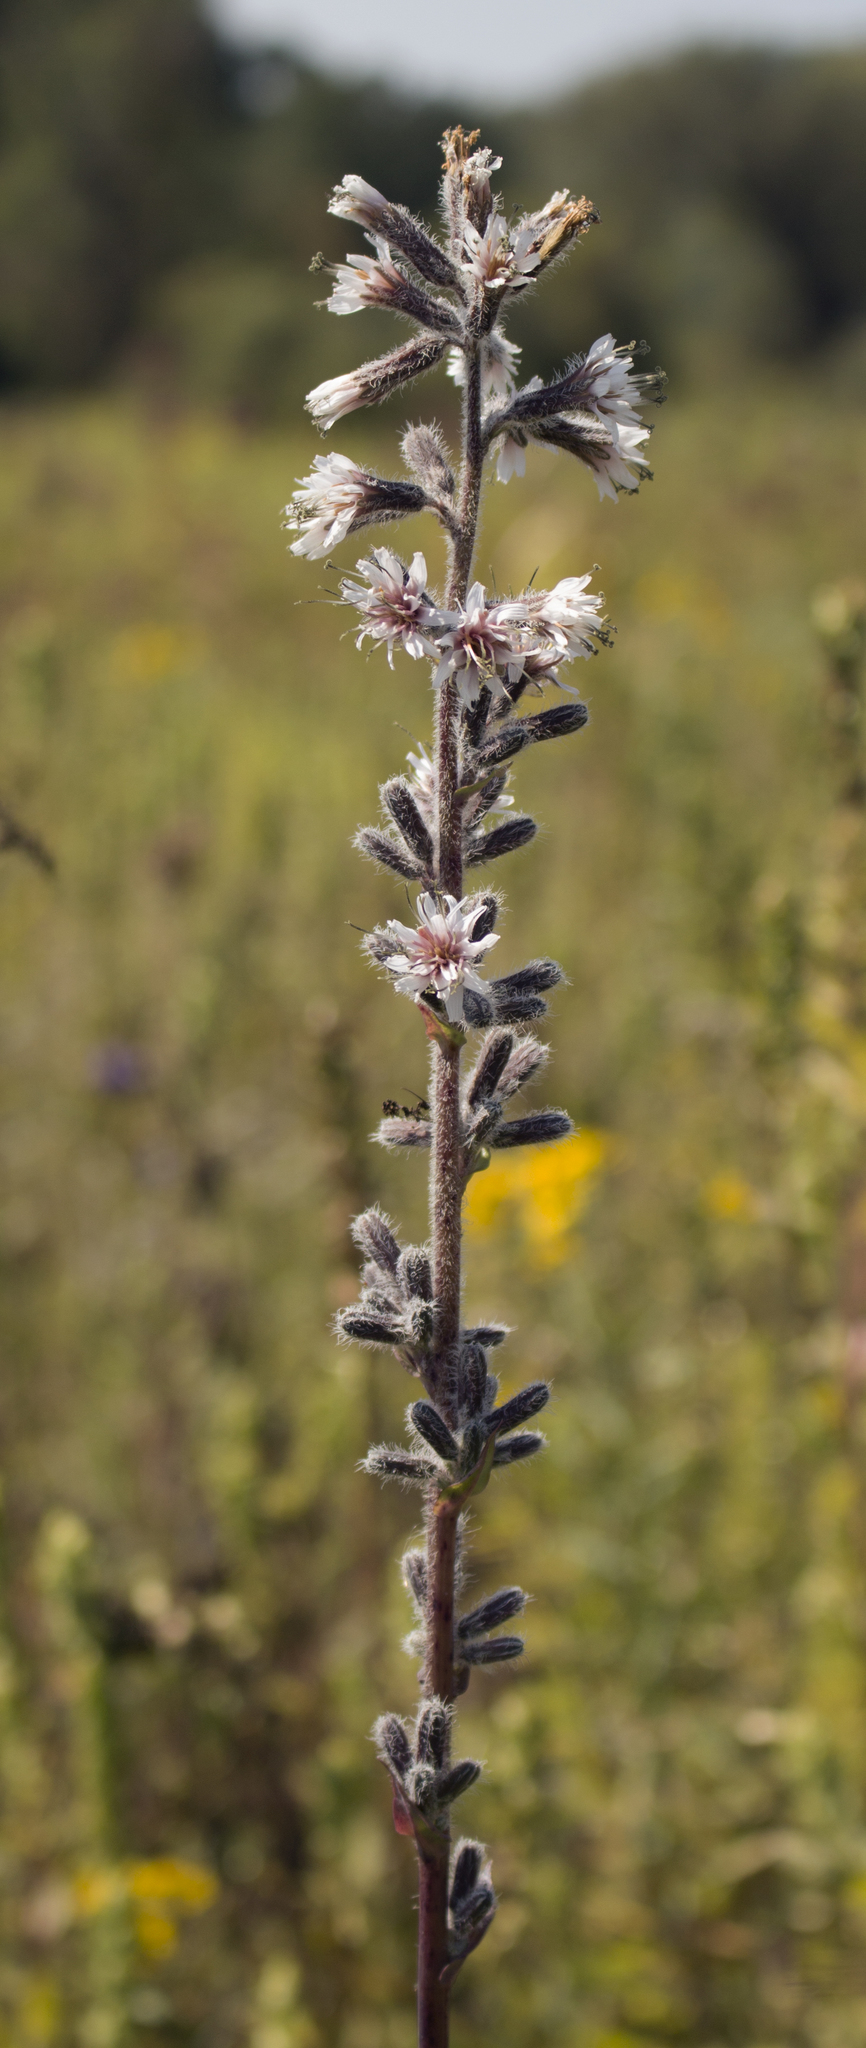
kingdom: Plantae
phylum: Tracheophyta
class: Magnoliopsida
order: Asterales
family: Asteraceae
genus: Nabalus
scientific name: Nabalus racemosus
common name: Glaucous white lettuce
